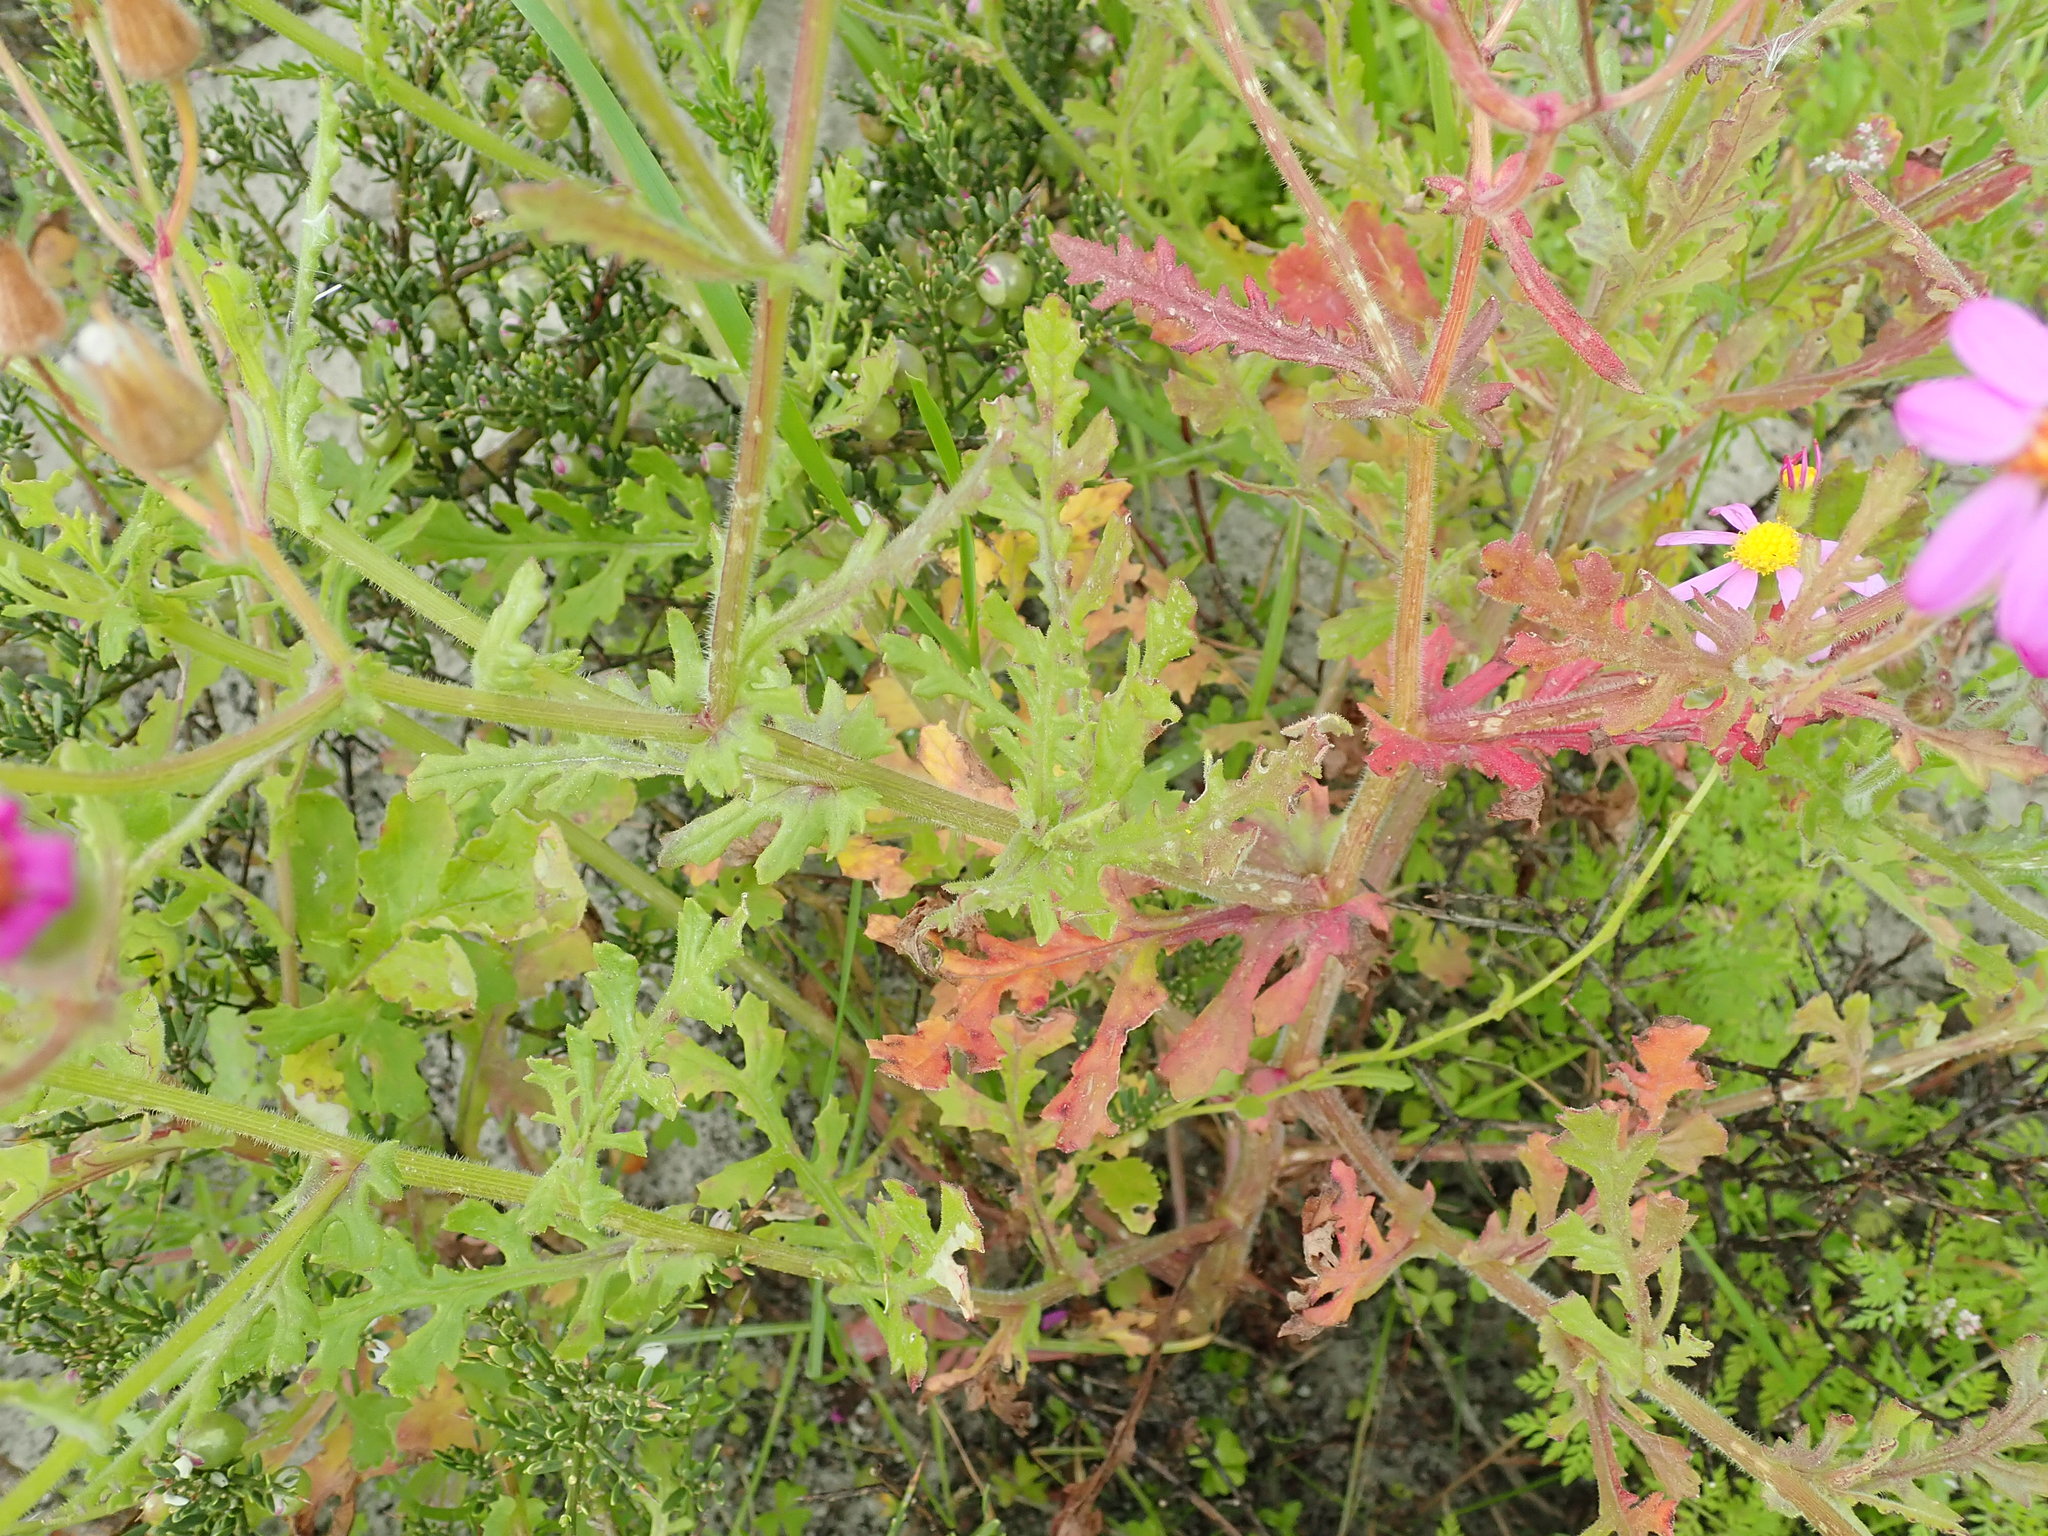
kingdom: Plantae
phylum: Tracheophyta
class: Magnoliopsida
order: Asterales
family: Asteraceae
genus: Senecio
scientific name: Senecio elegans
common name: Purple groundsel
